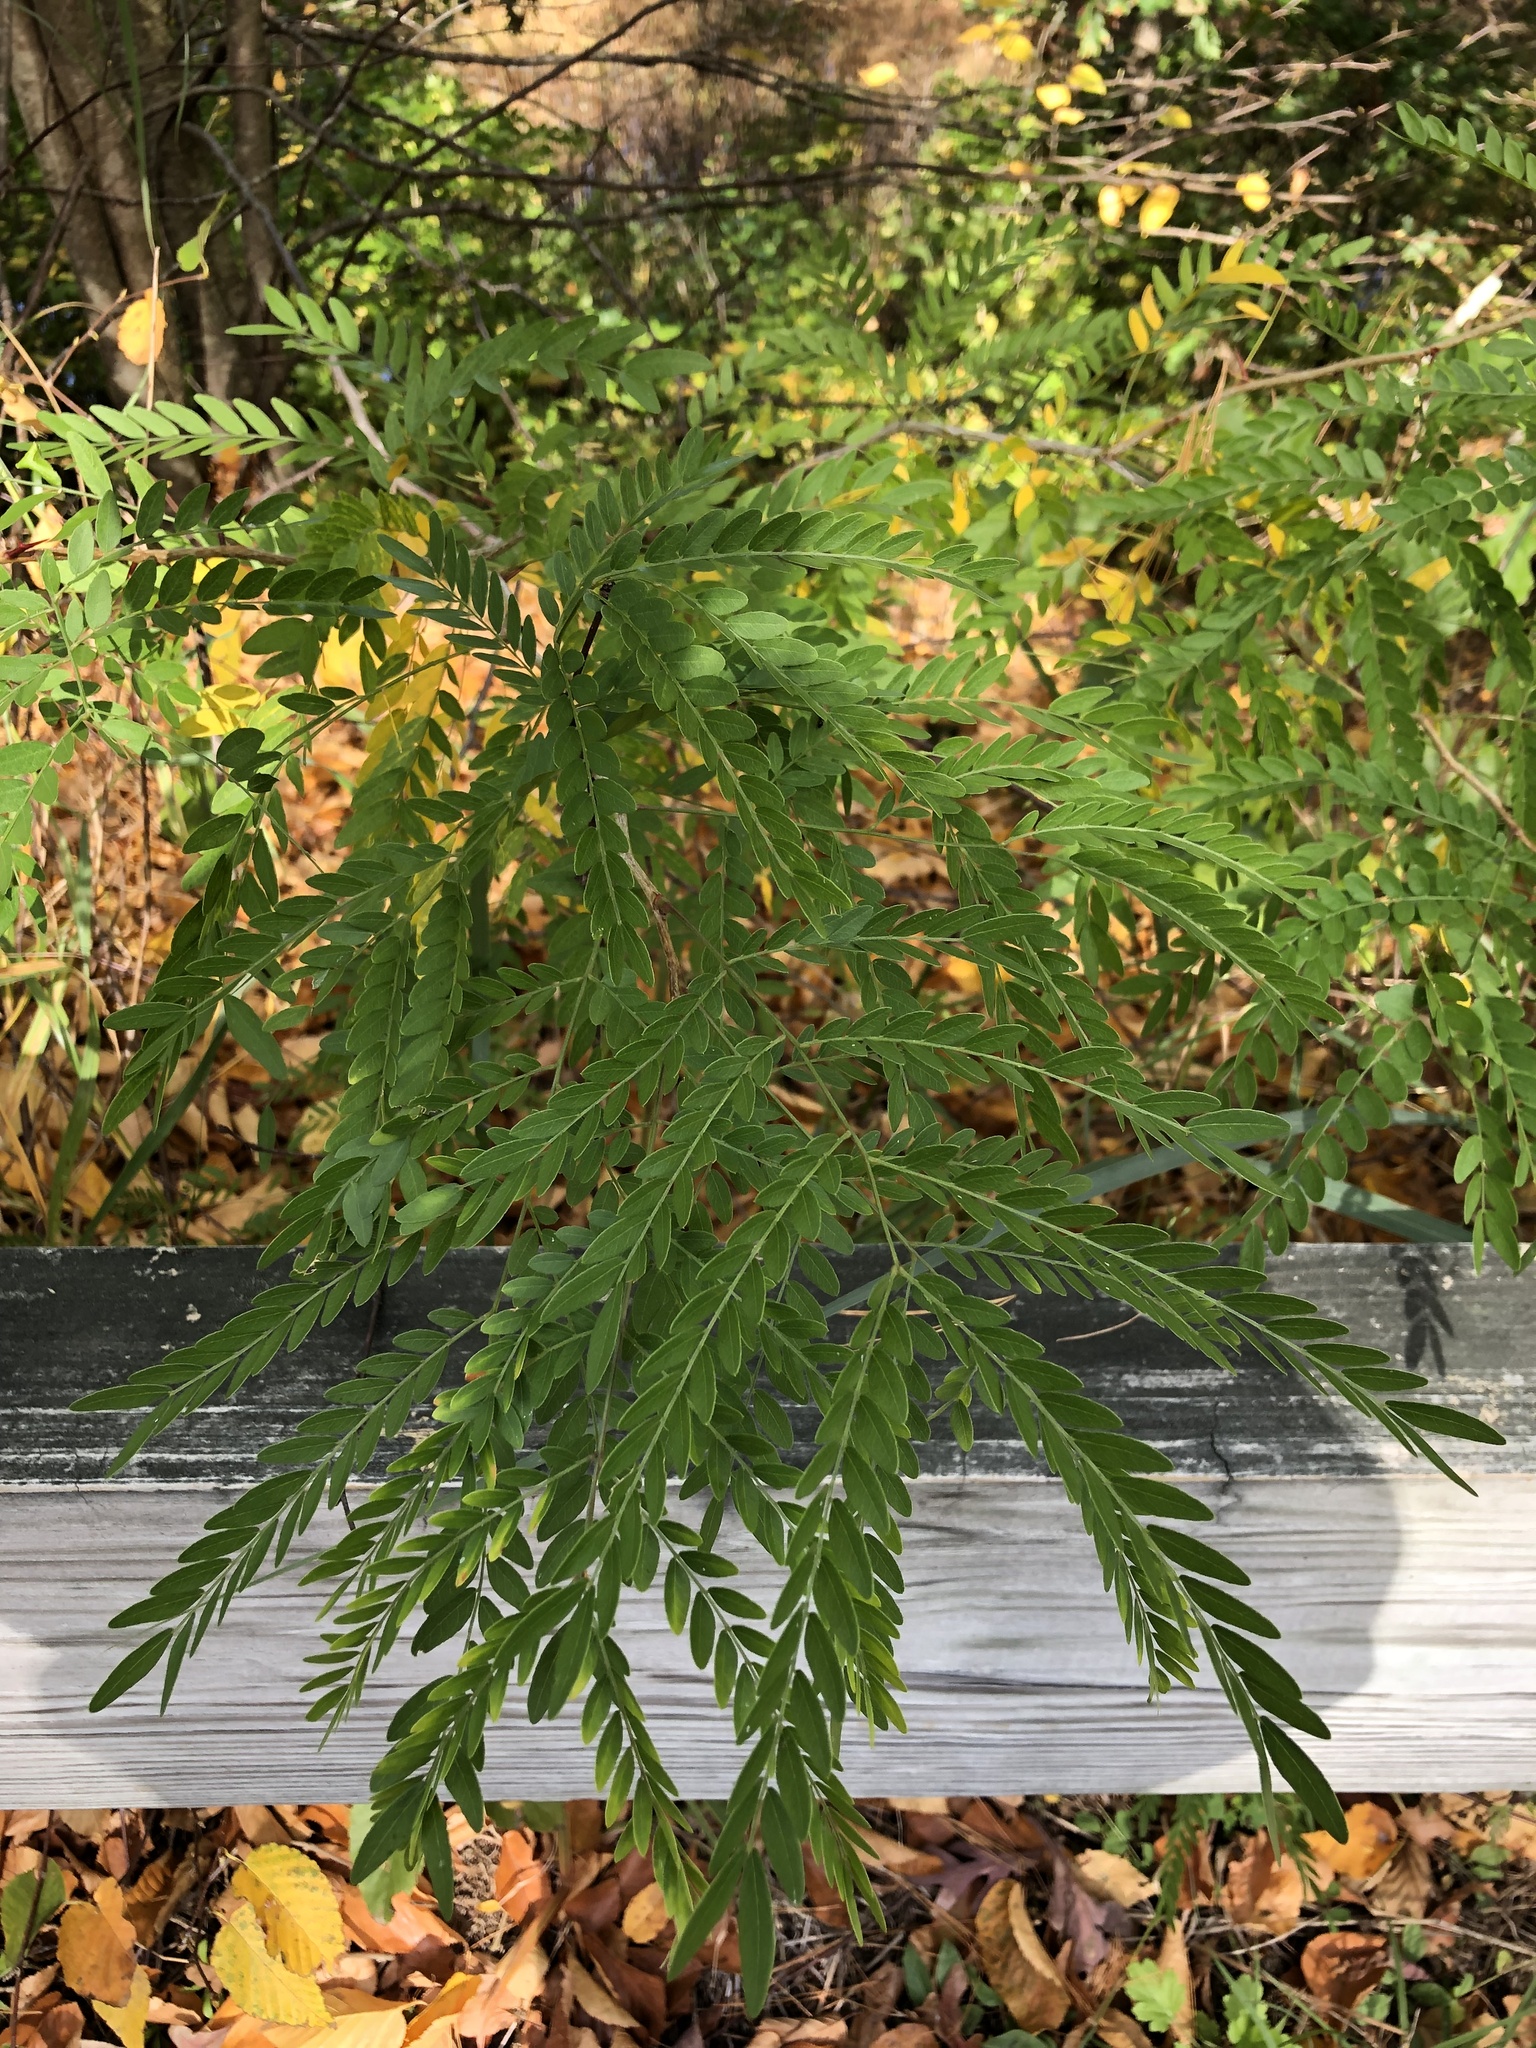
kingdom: Plantae
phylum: Tracheophyta
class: Magnoliopsida
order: Fabales
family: Fabaceae
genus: Gleditsia
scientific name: Gleditsia triacanthos
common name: Common honeylocust
